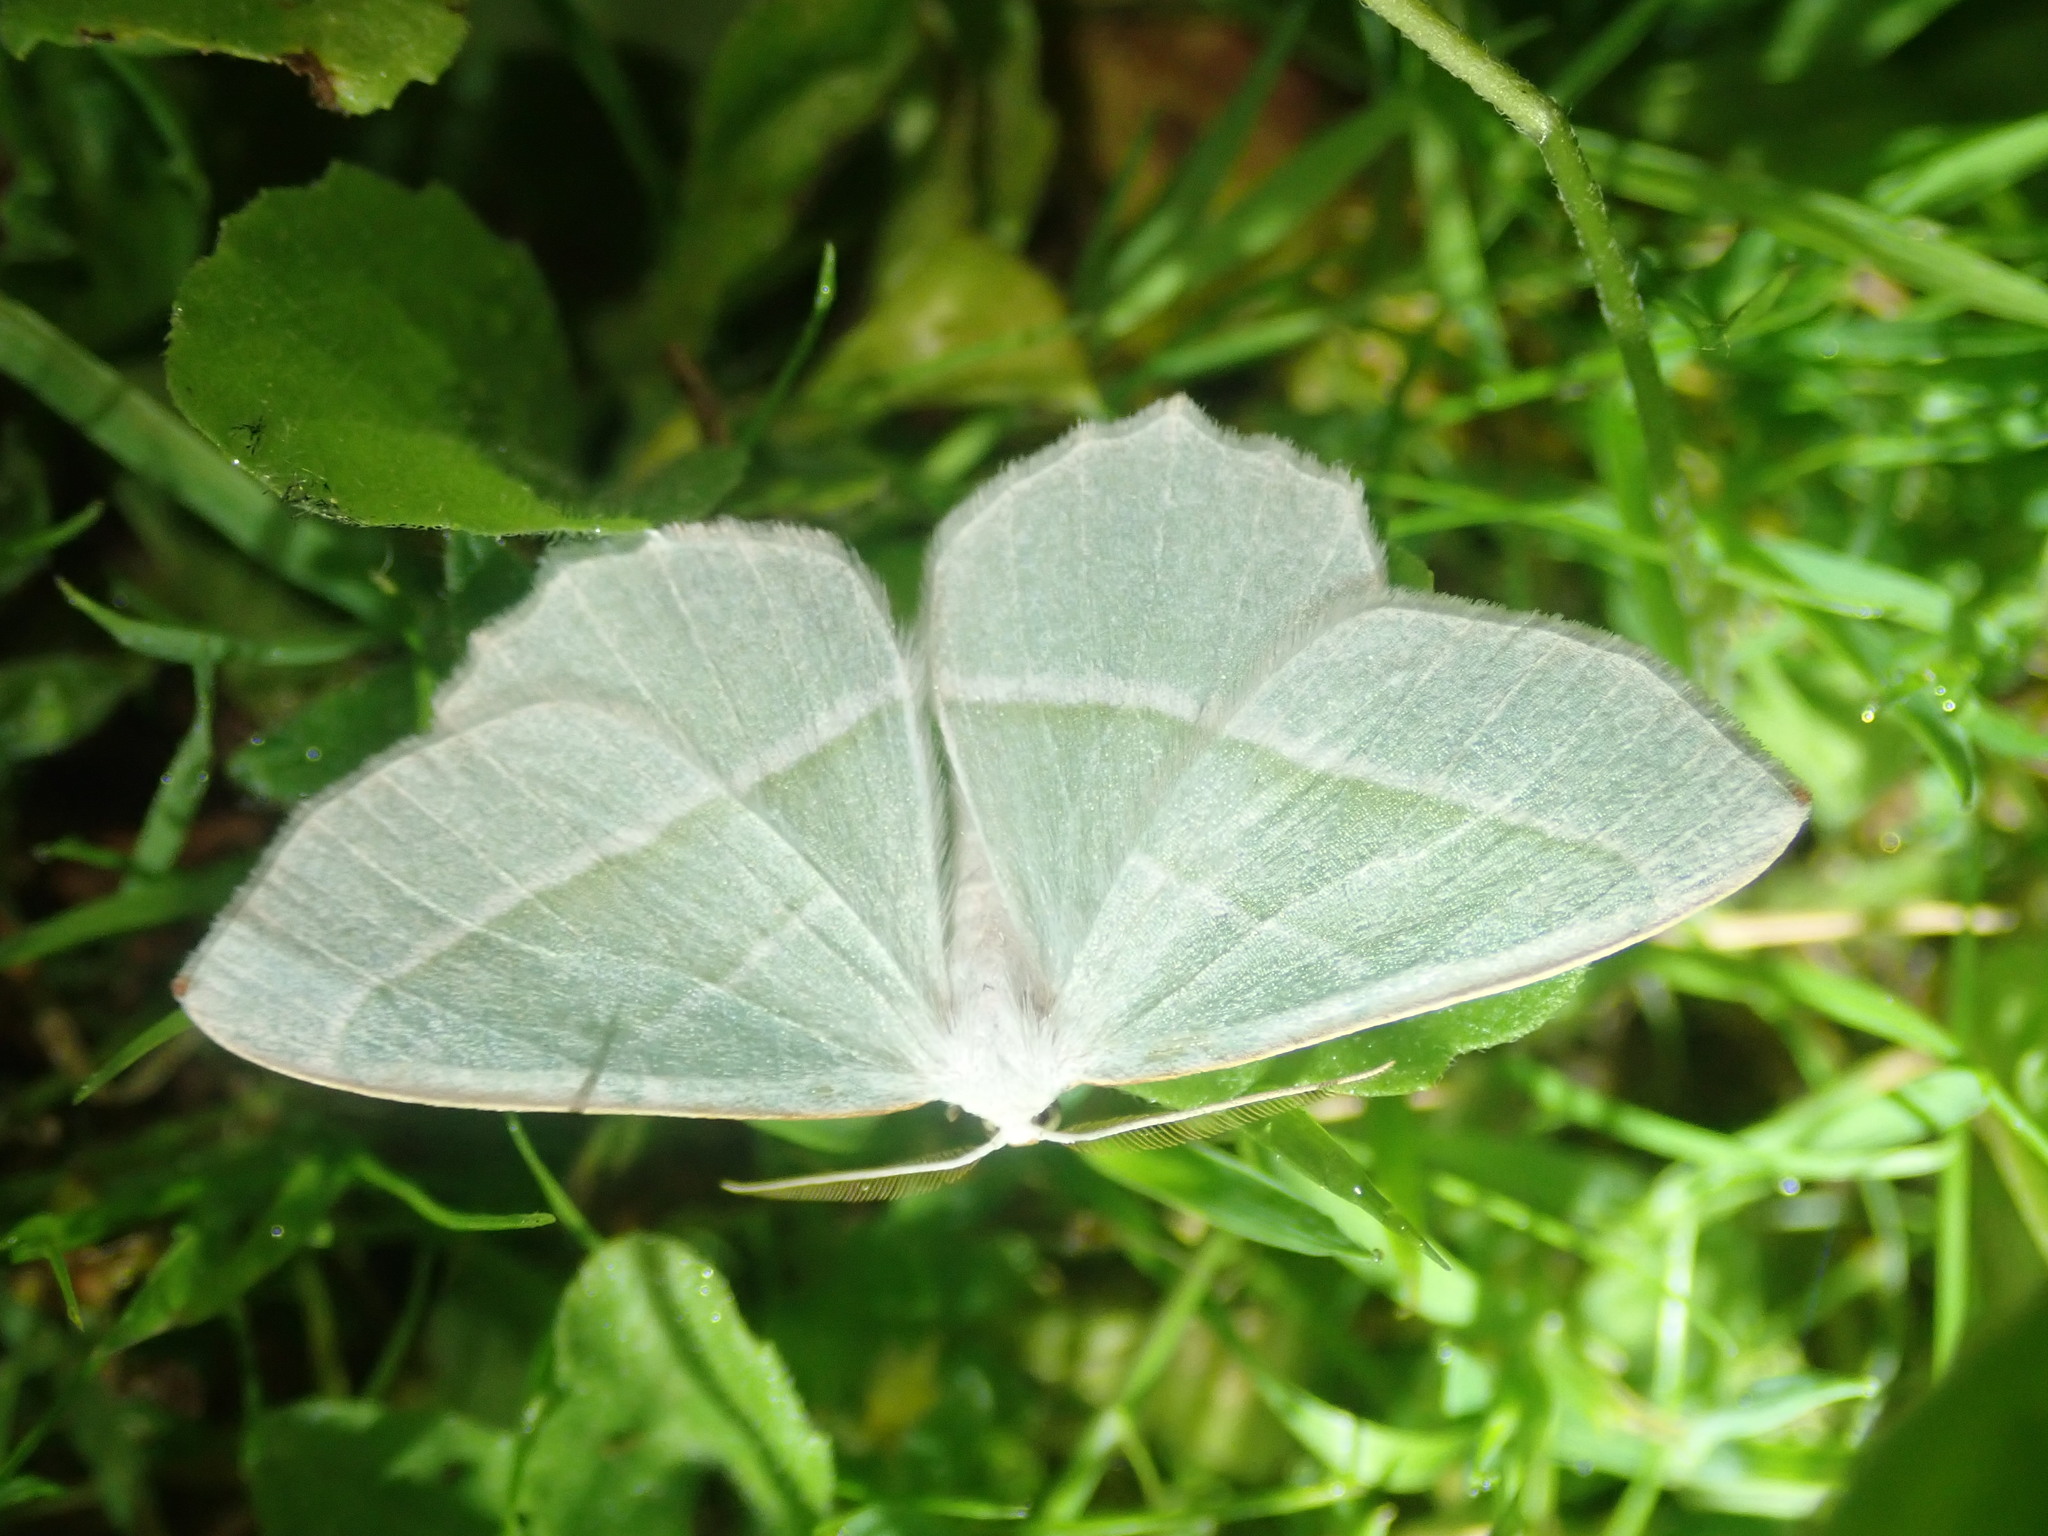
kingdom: Animalia
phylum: Arthropoda
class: Insecta
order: Lepidoptera
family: Geometridae
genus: Campaea
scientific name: Campaea margaritaria
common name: Light emerald
